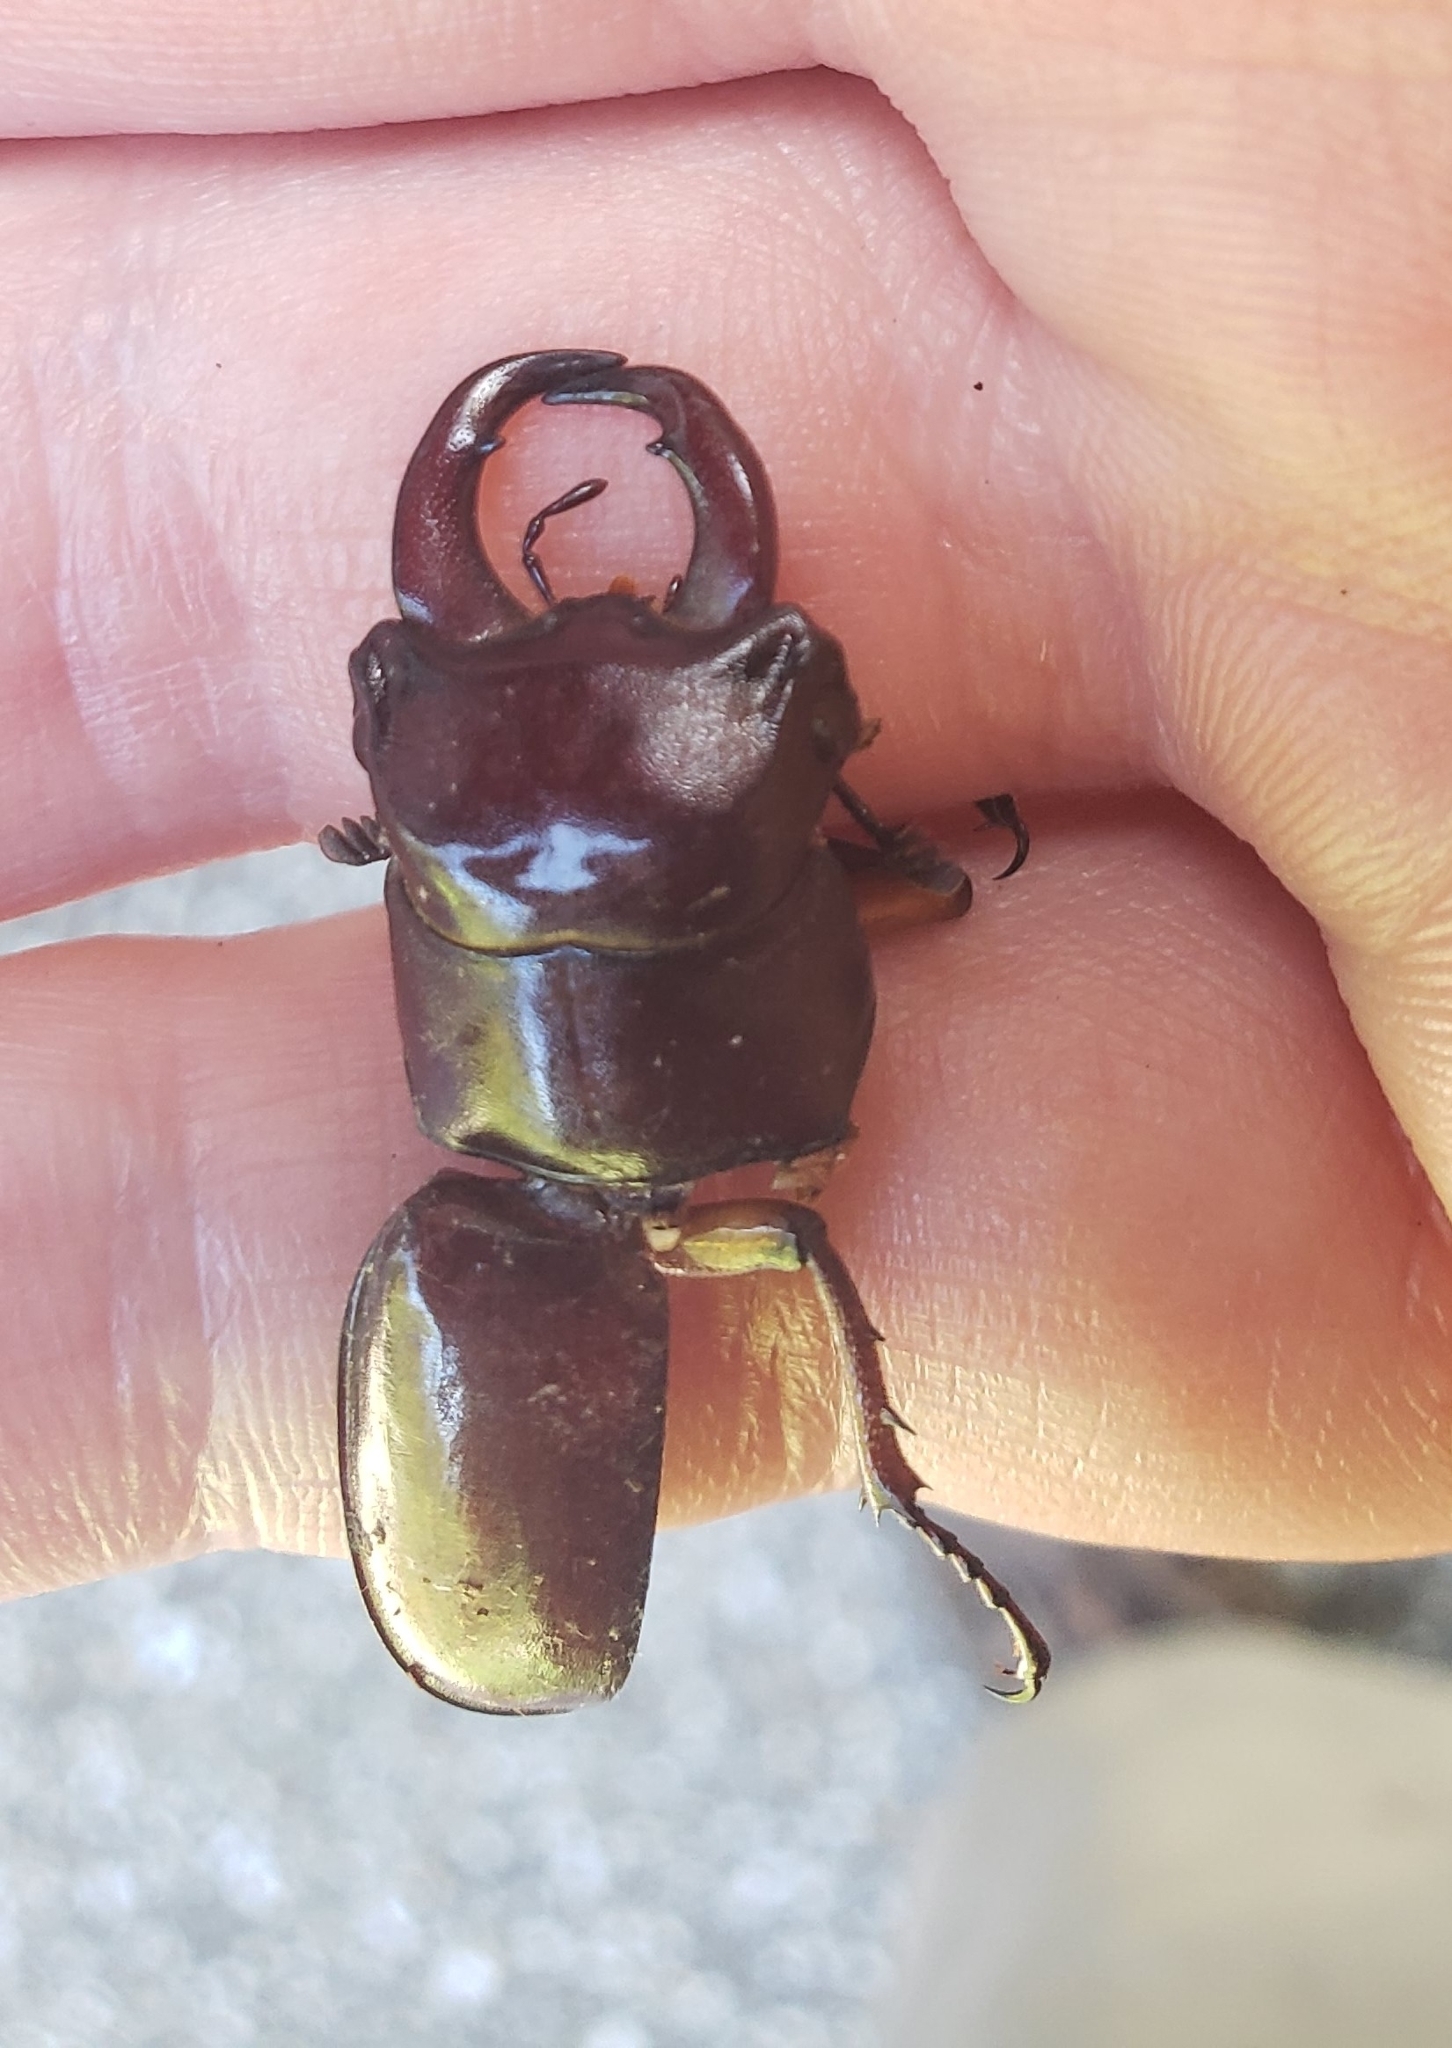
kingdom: Animalia
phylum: Arthropoda
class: Insecta
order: Coleoptera
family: Lucanidae
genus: Lucanus
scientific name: Lucanus capreolus
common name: Stag beetle
